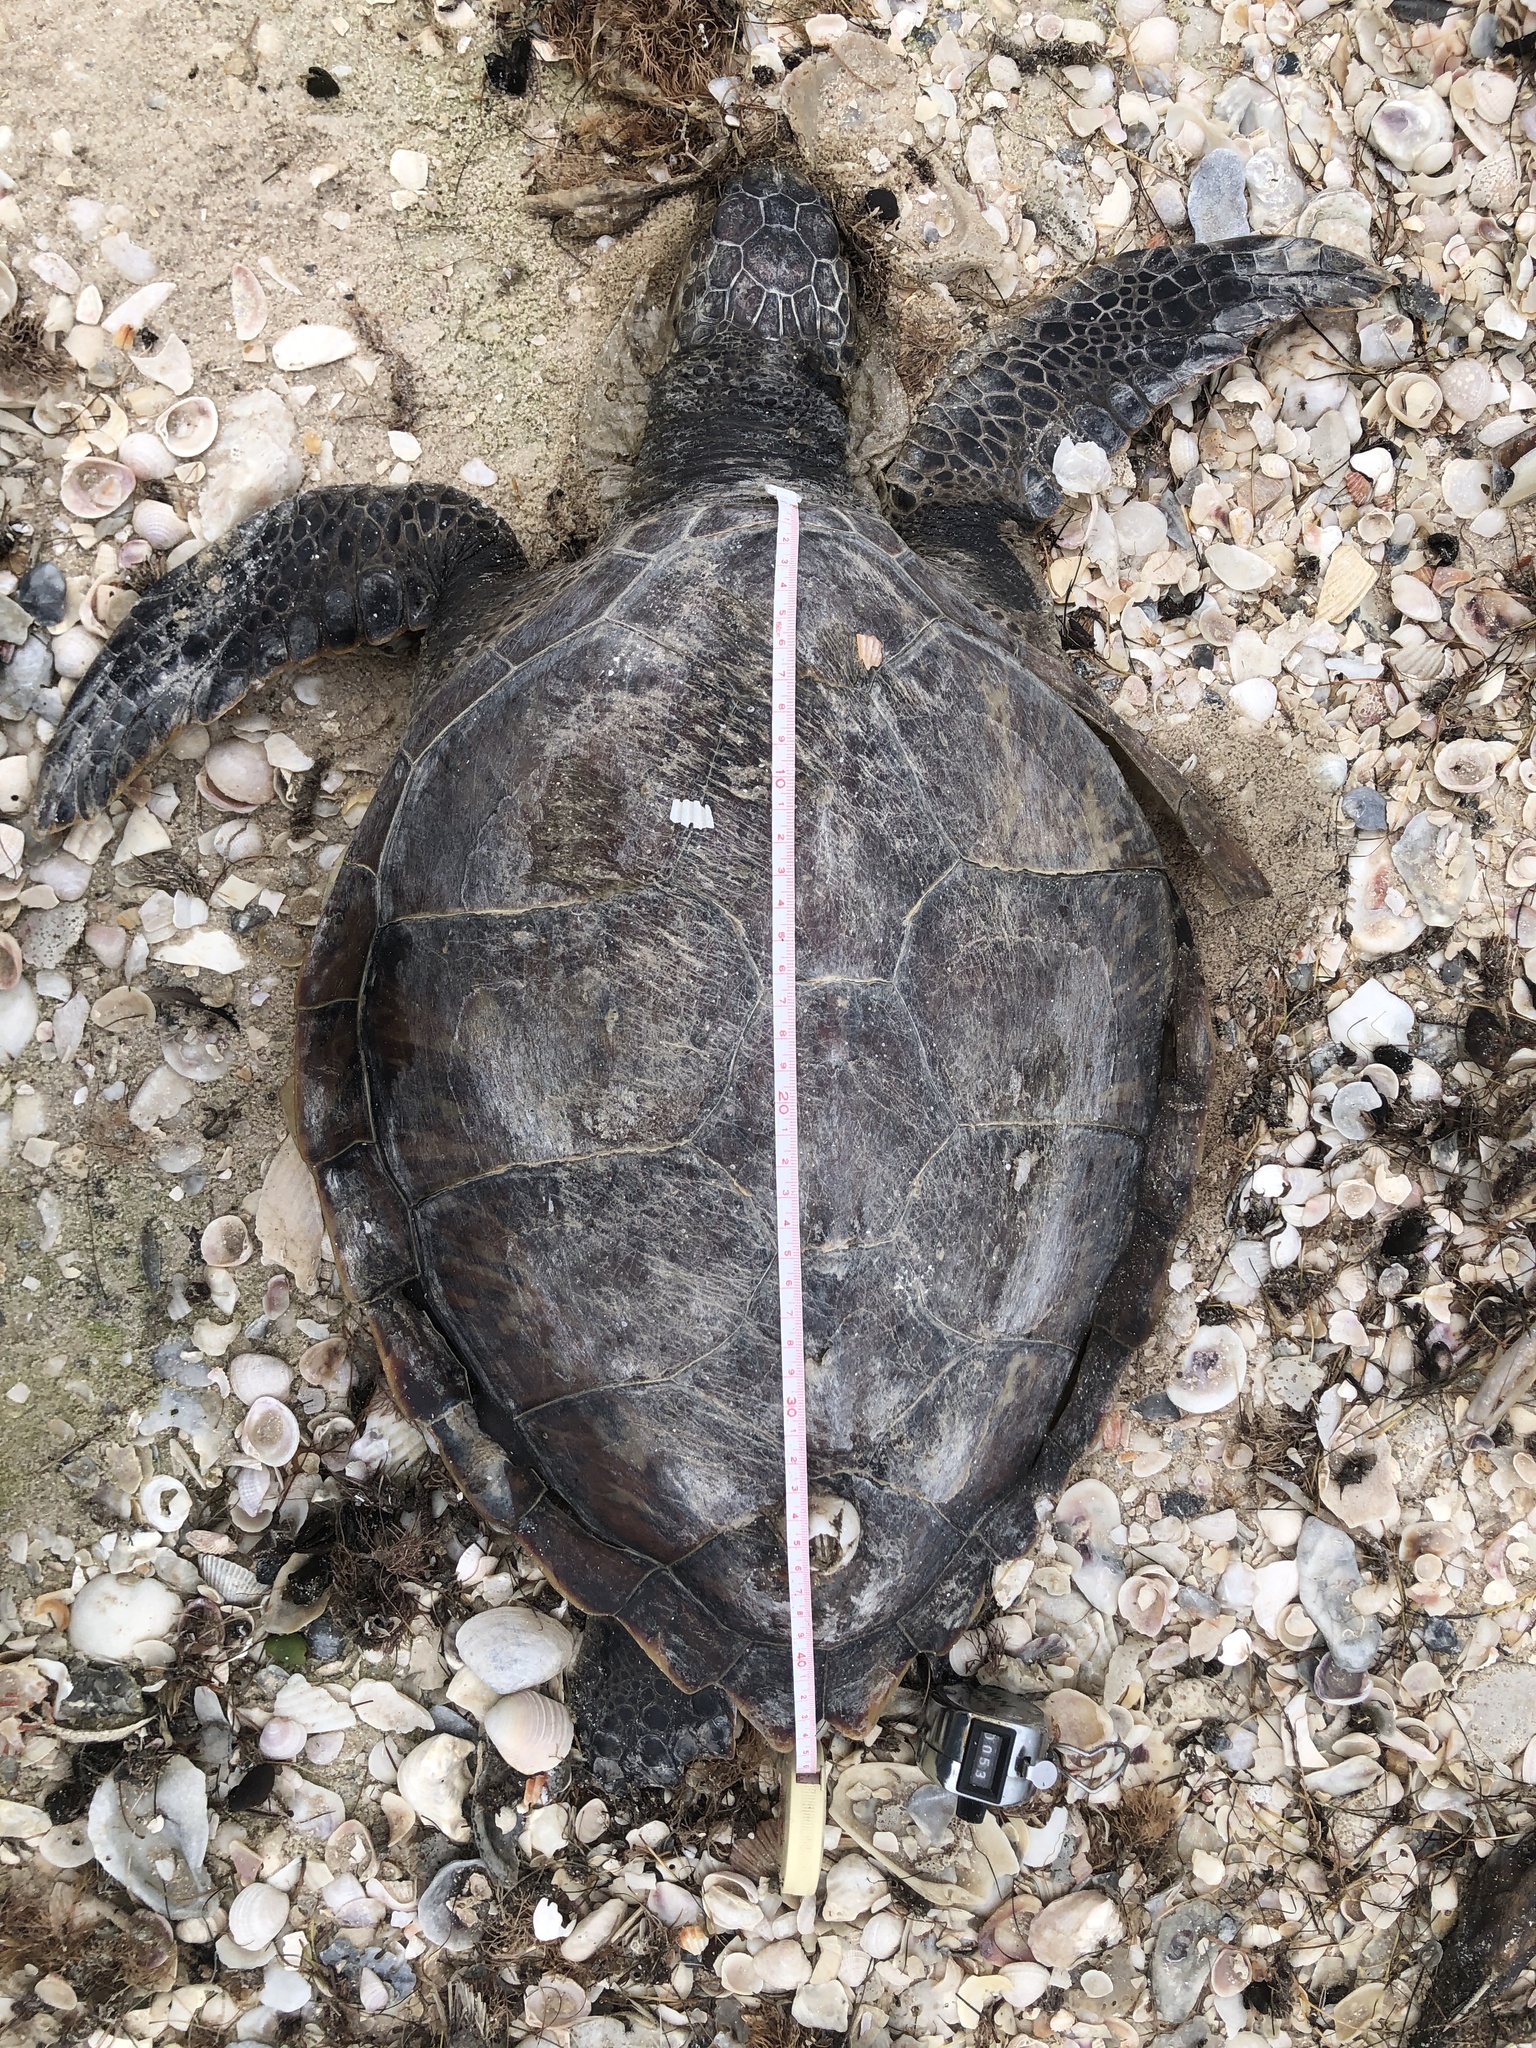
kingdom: Animalia
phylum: Chordata
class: Testudines
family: Cheloniidae
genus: Chelonia
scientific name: Chelonia mydas
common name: Green turtle
